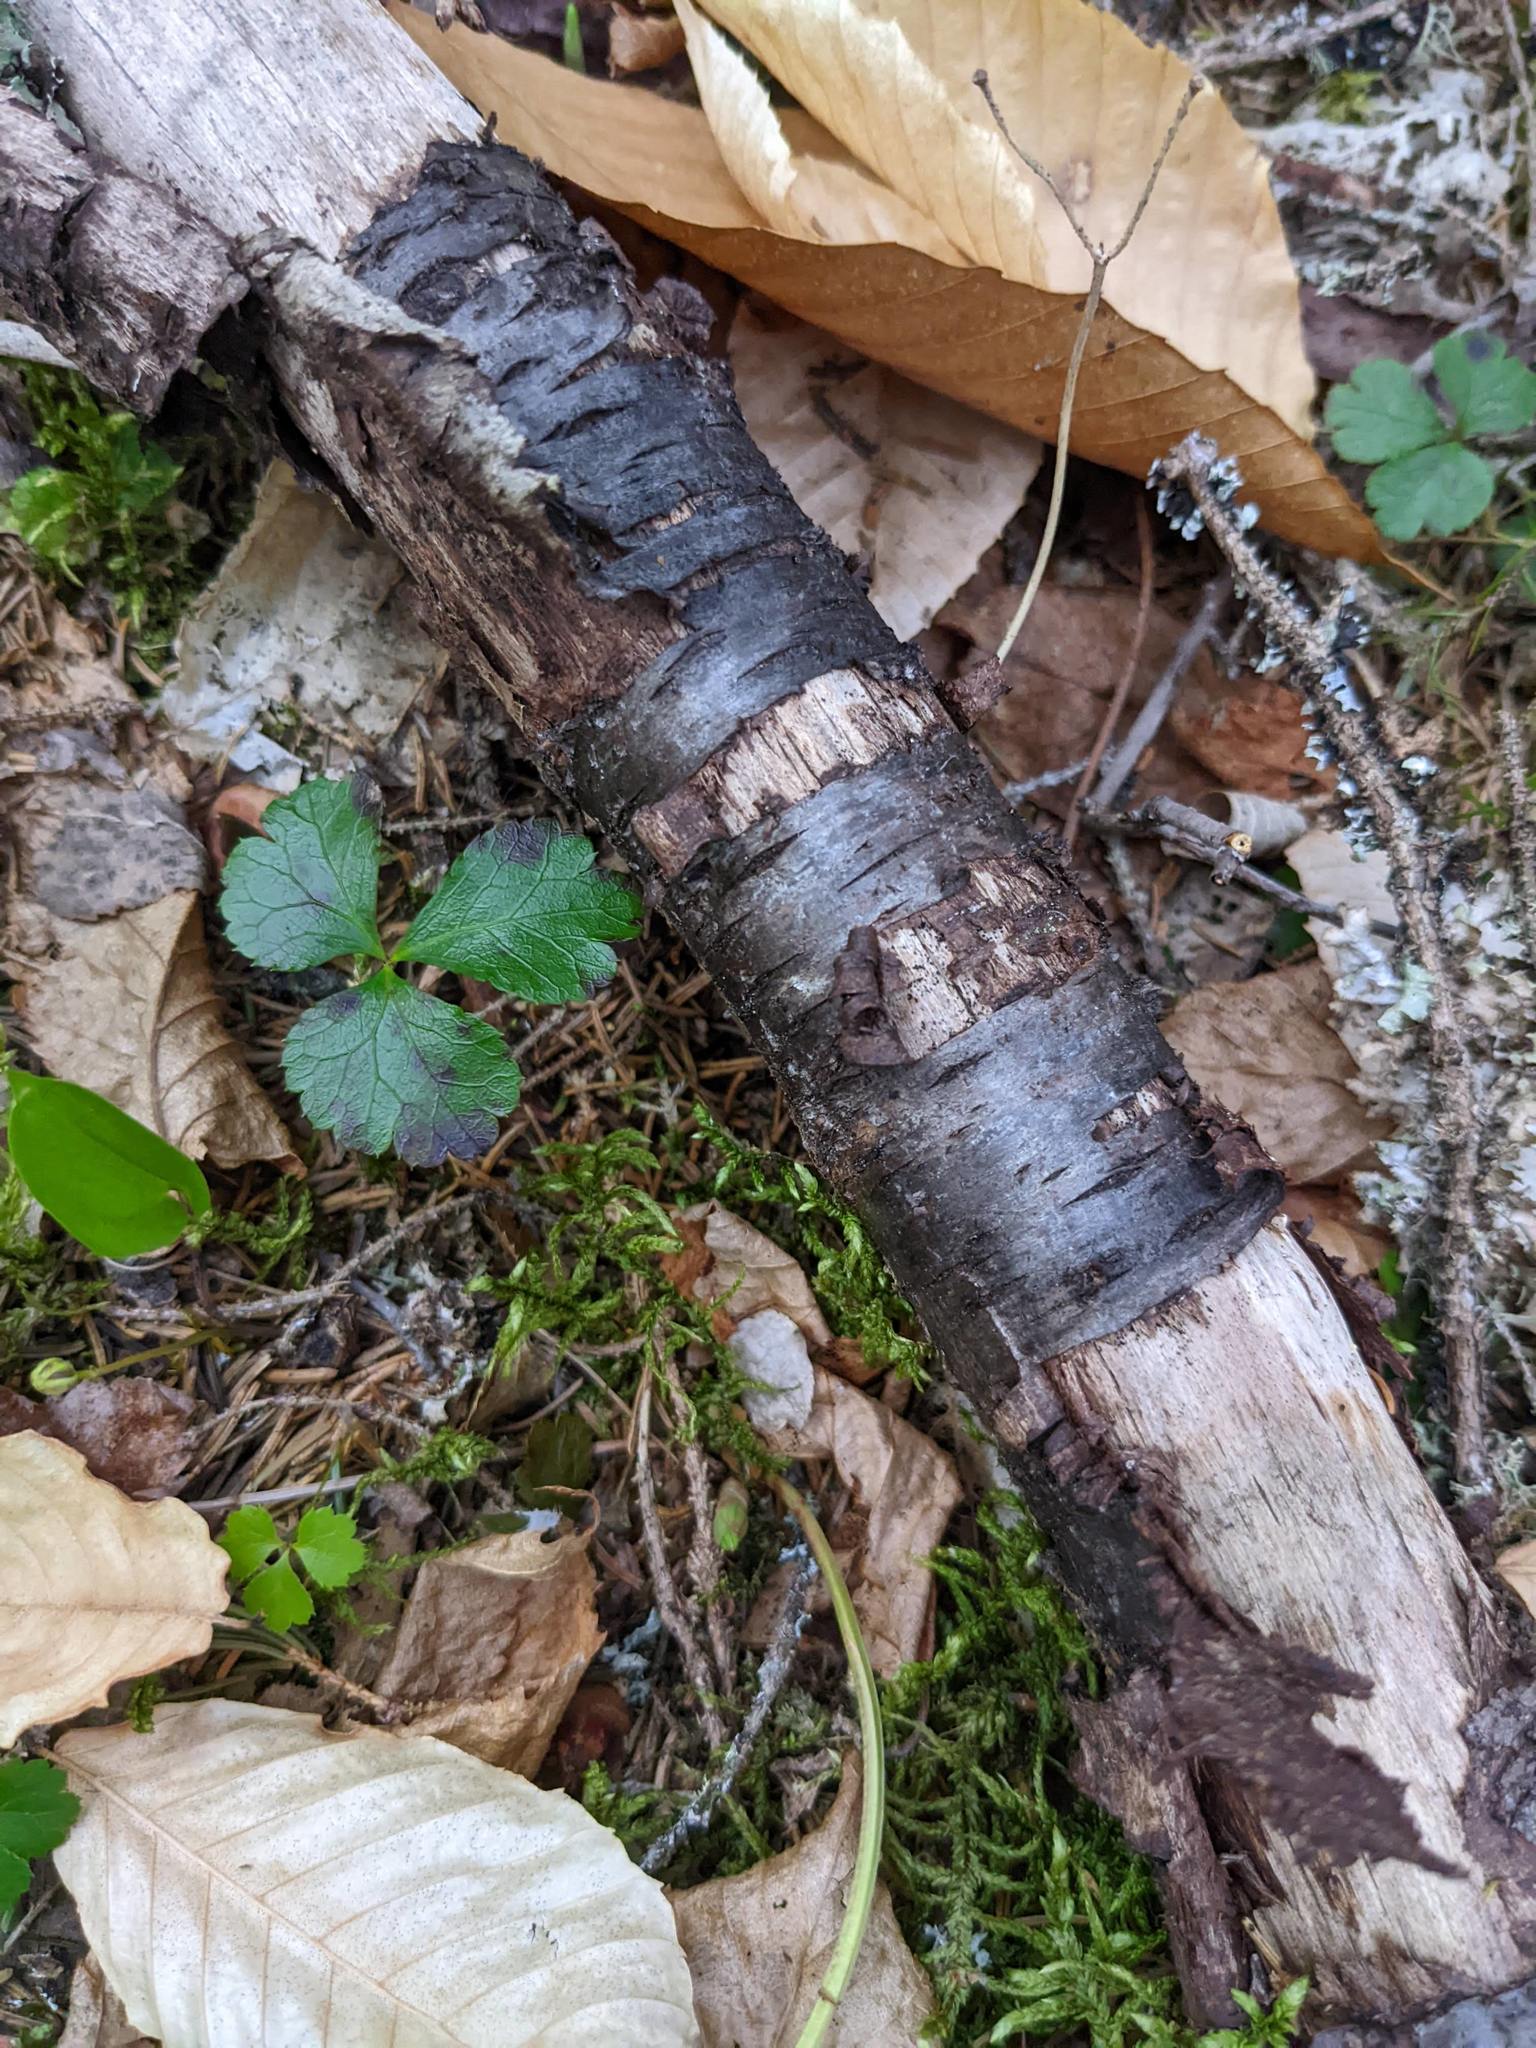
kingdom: Plantae
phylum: Tracheophyta
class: Magnoliopsida
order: Ranunculales
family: Ranunculaceae
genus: Coptis
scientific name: Coptis trifolia
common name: Canker-root
